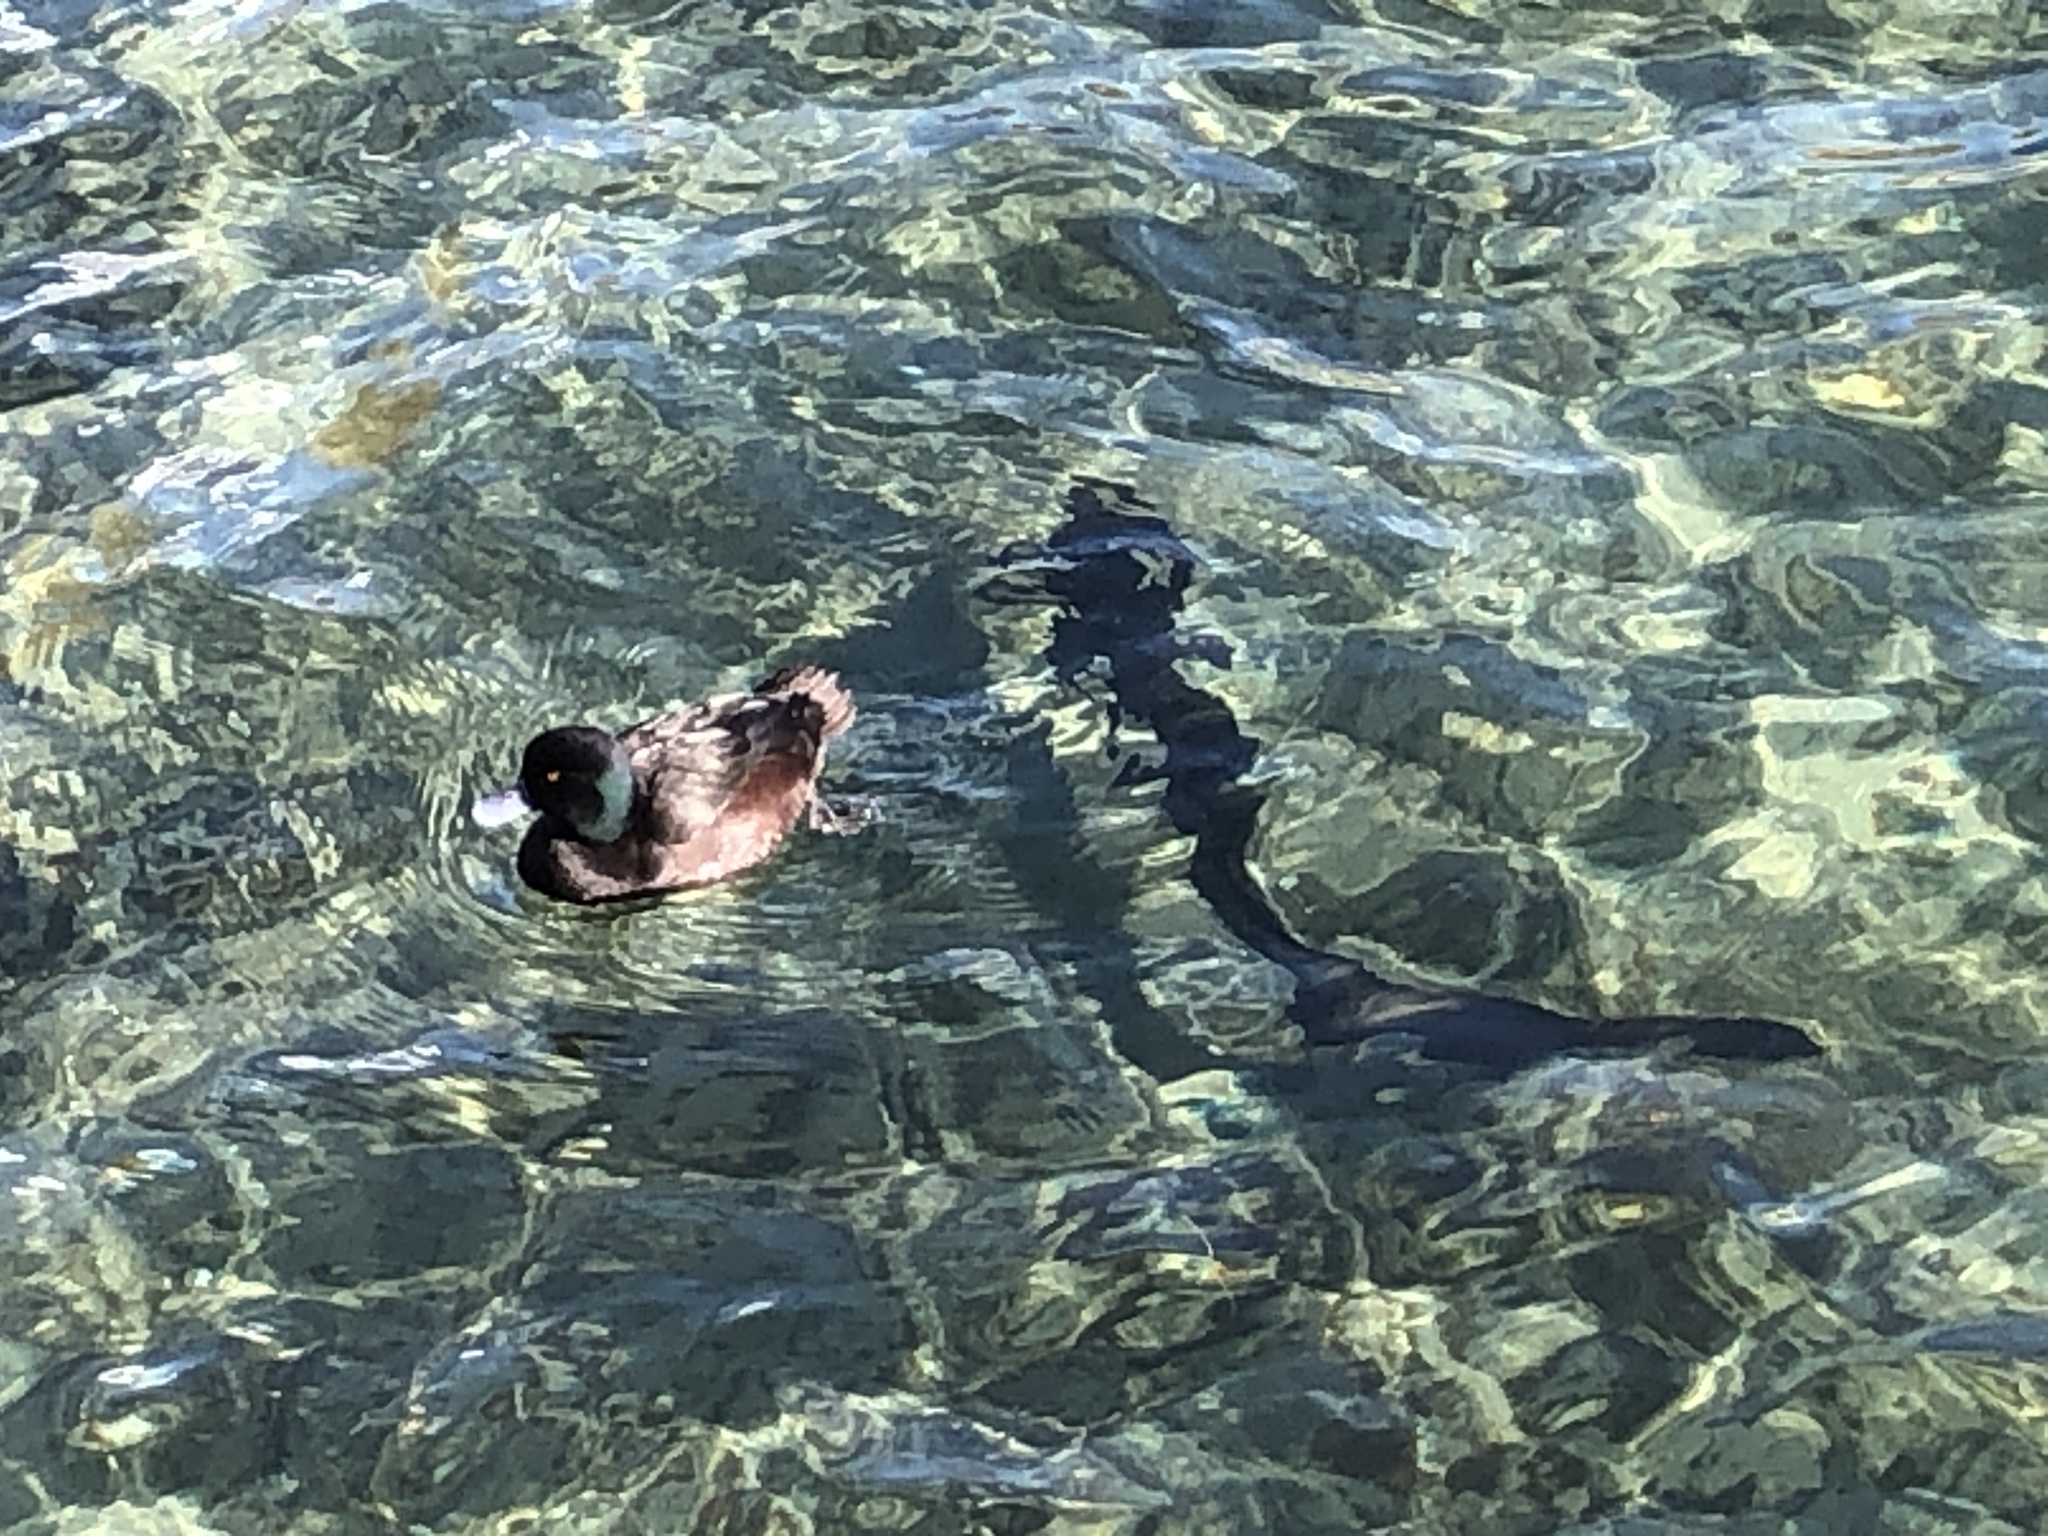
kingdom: Animalia
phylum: Chordata
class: Aves
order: Anseriformes
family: Anatidae
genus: Aythya
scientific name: Aythya novaeseelandiae
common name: New zealand scaup
